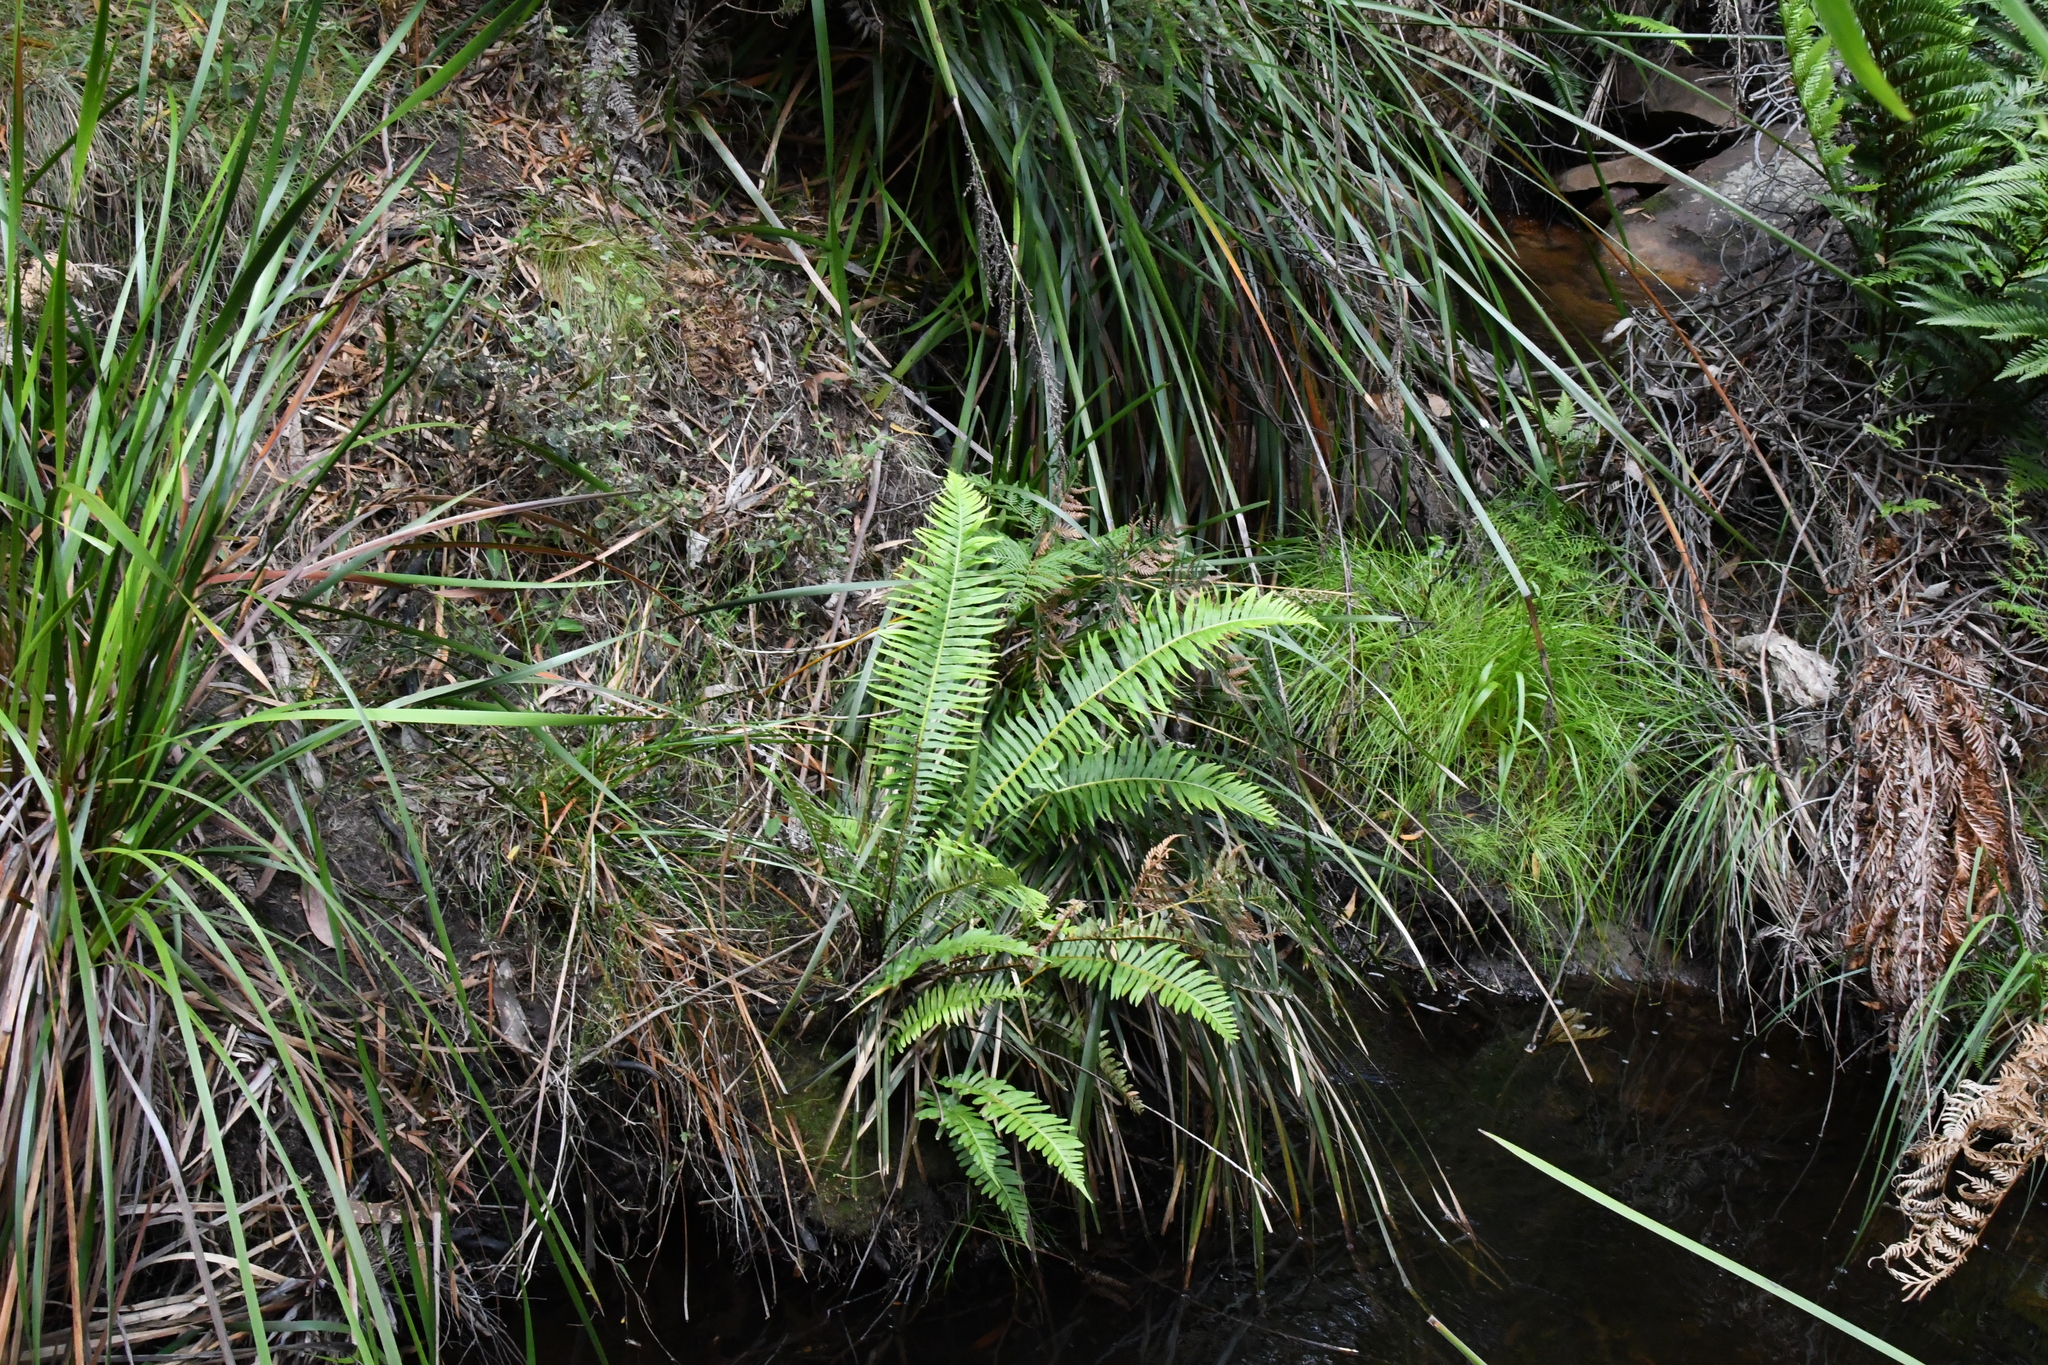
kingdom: Plantae
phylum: Tracheophyta
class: Polypodiopsida
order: Polypodiales
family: Blechnaceae
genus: Lomaria
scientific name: Lomaria nuda
